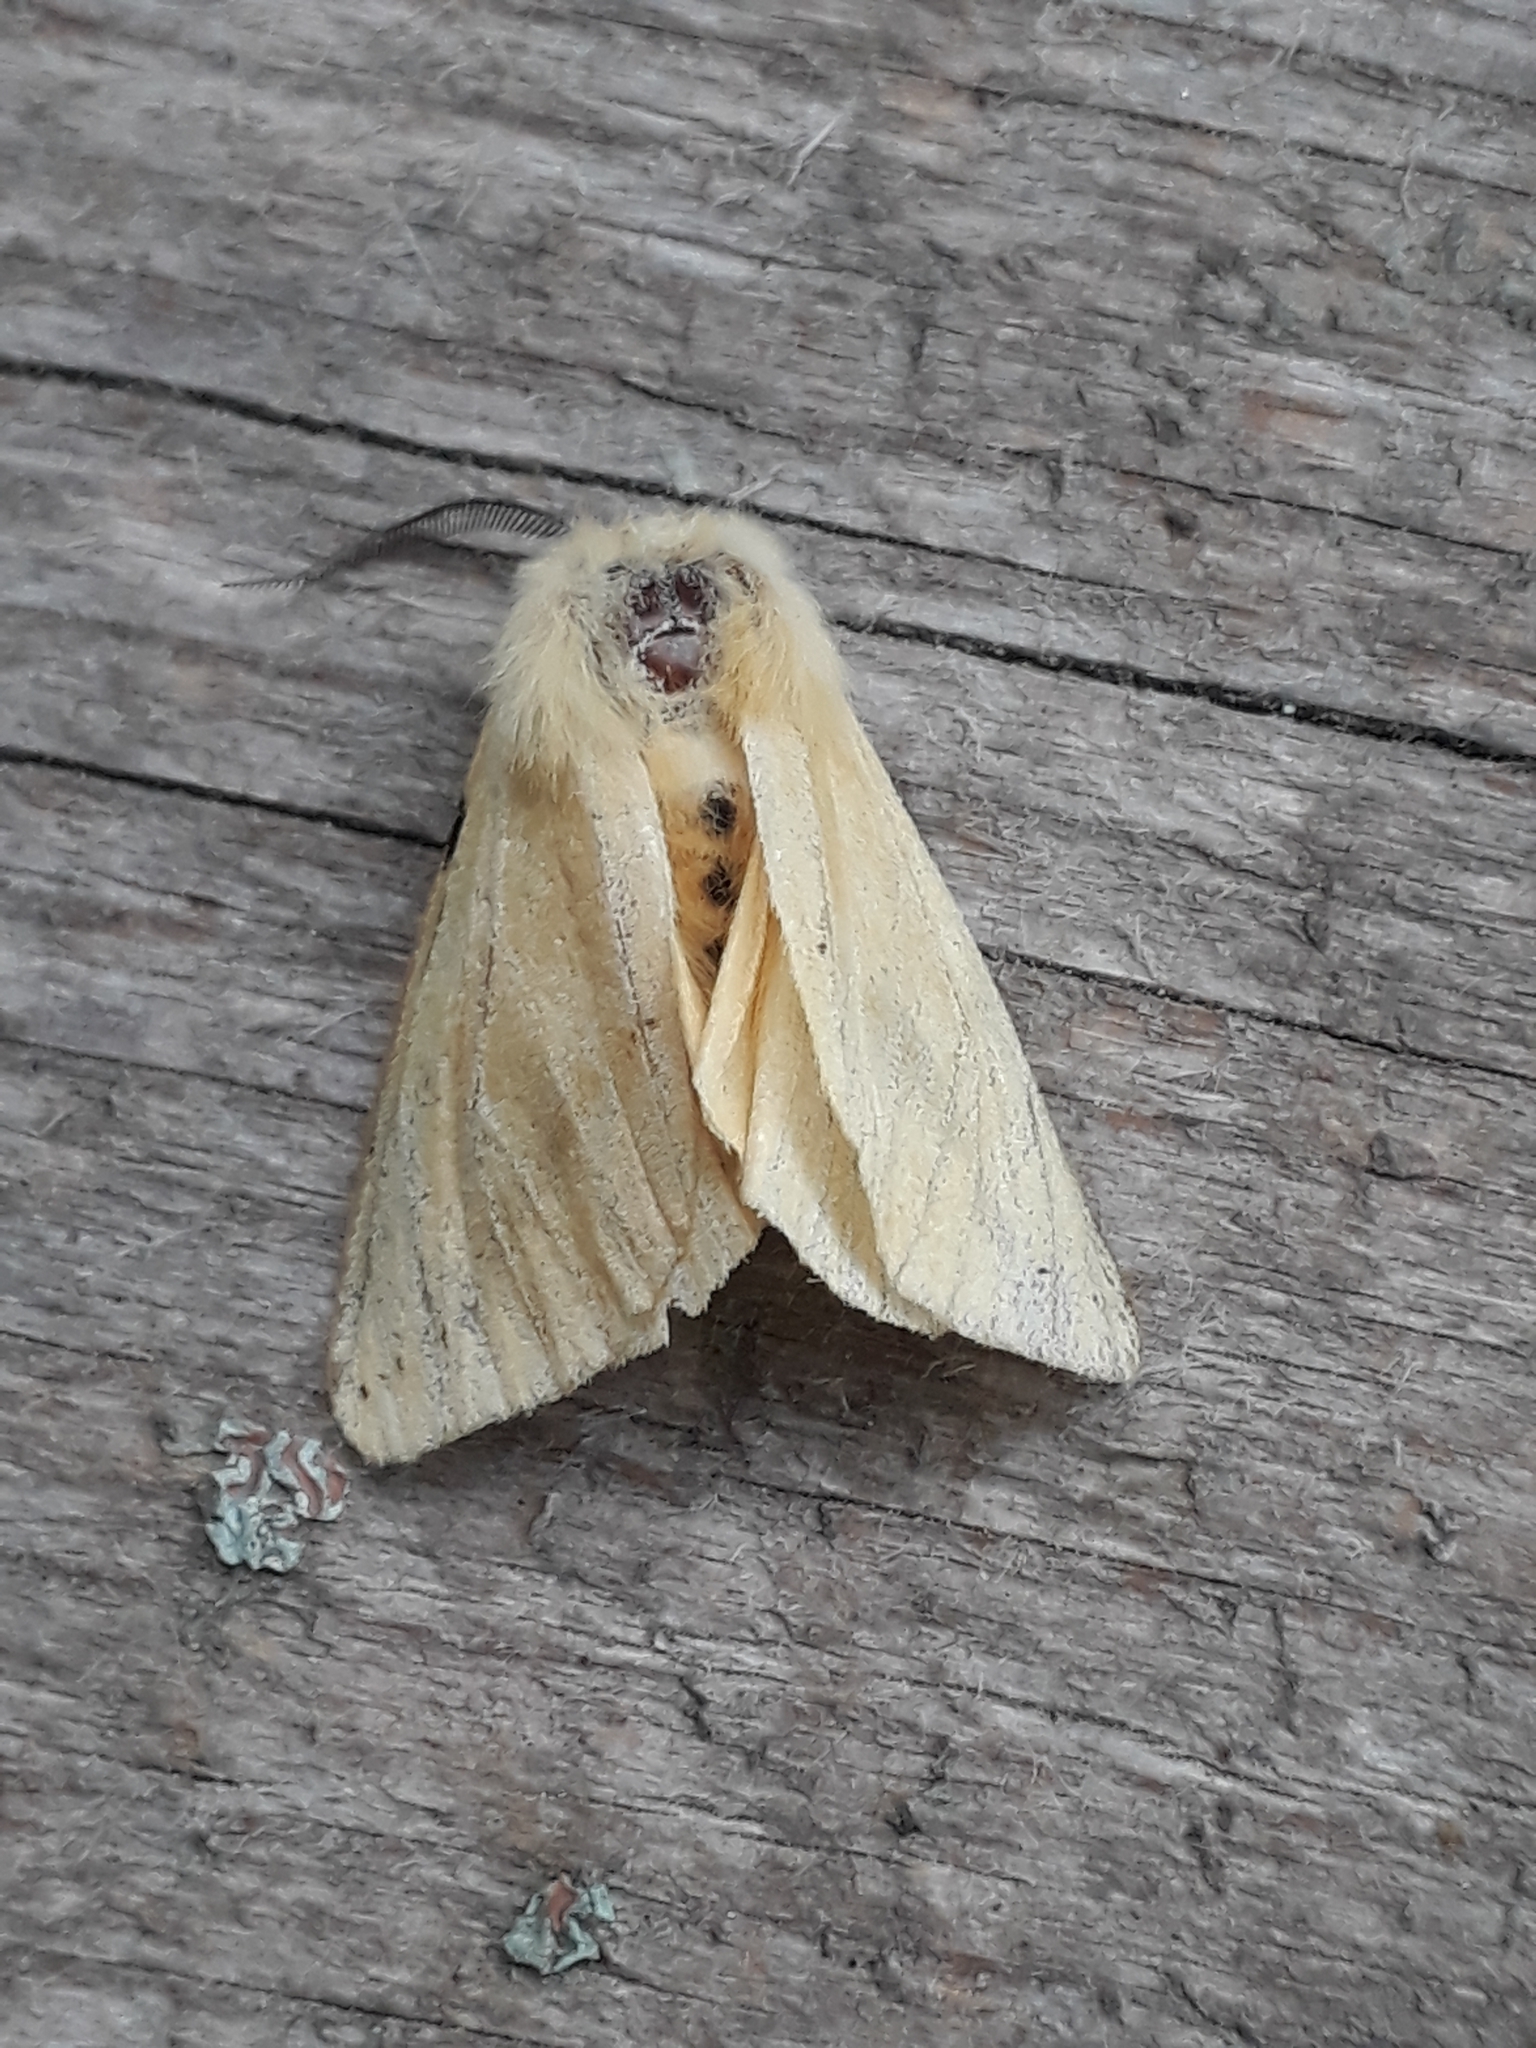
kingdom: Animalia
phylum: Arthropoda
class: Insecta
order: Lepidoptera
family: Erebidae
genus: Spilarctia
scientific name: Spilarctia lutea
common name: Buff ermine
